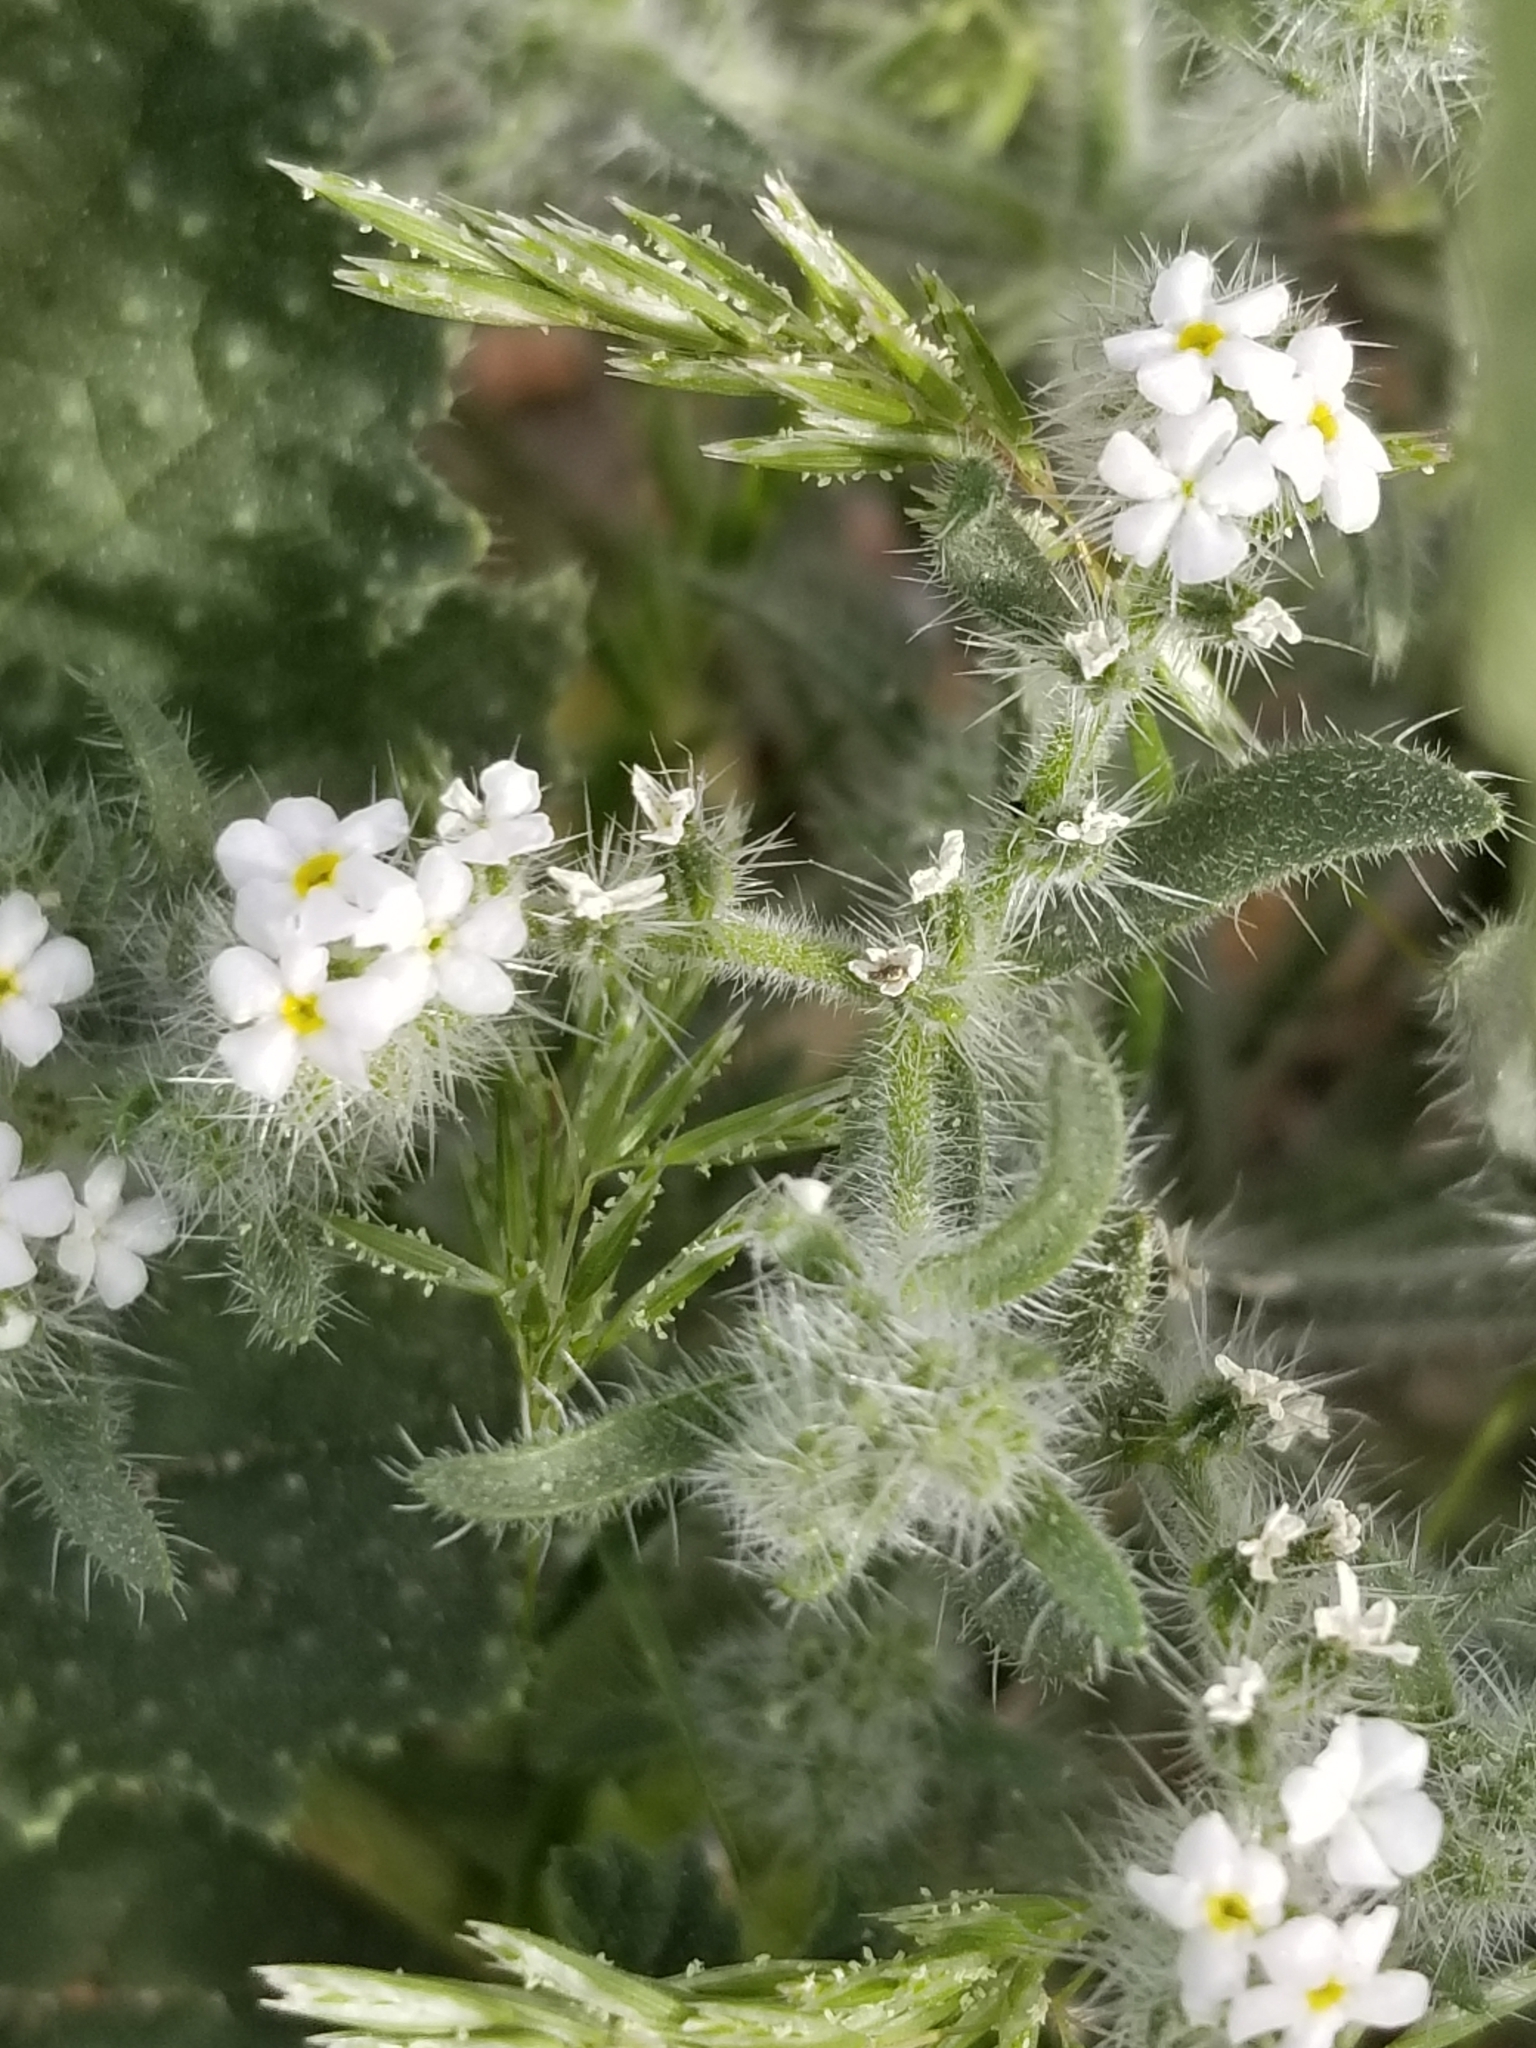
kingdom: Plantae
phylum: Tracheophyta
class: Magnoliopsida
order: Boraginales
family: Boraginaceae
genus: Cryptantha
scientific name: Cryptantha barbigera
